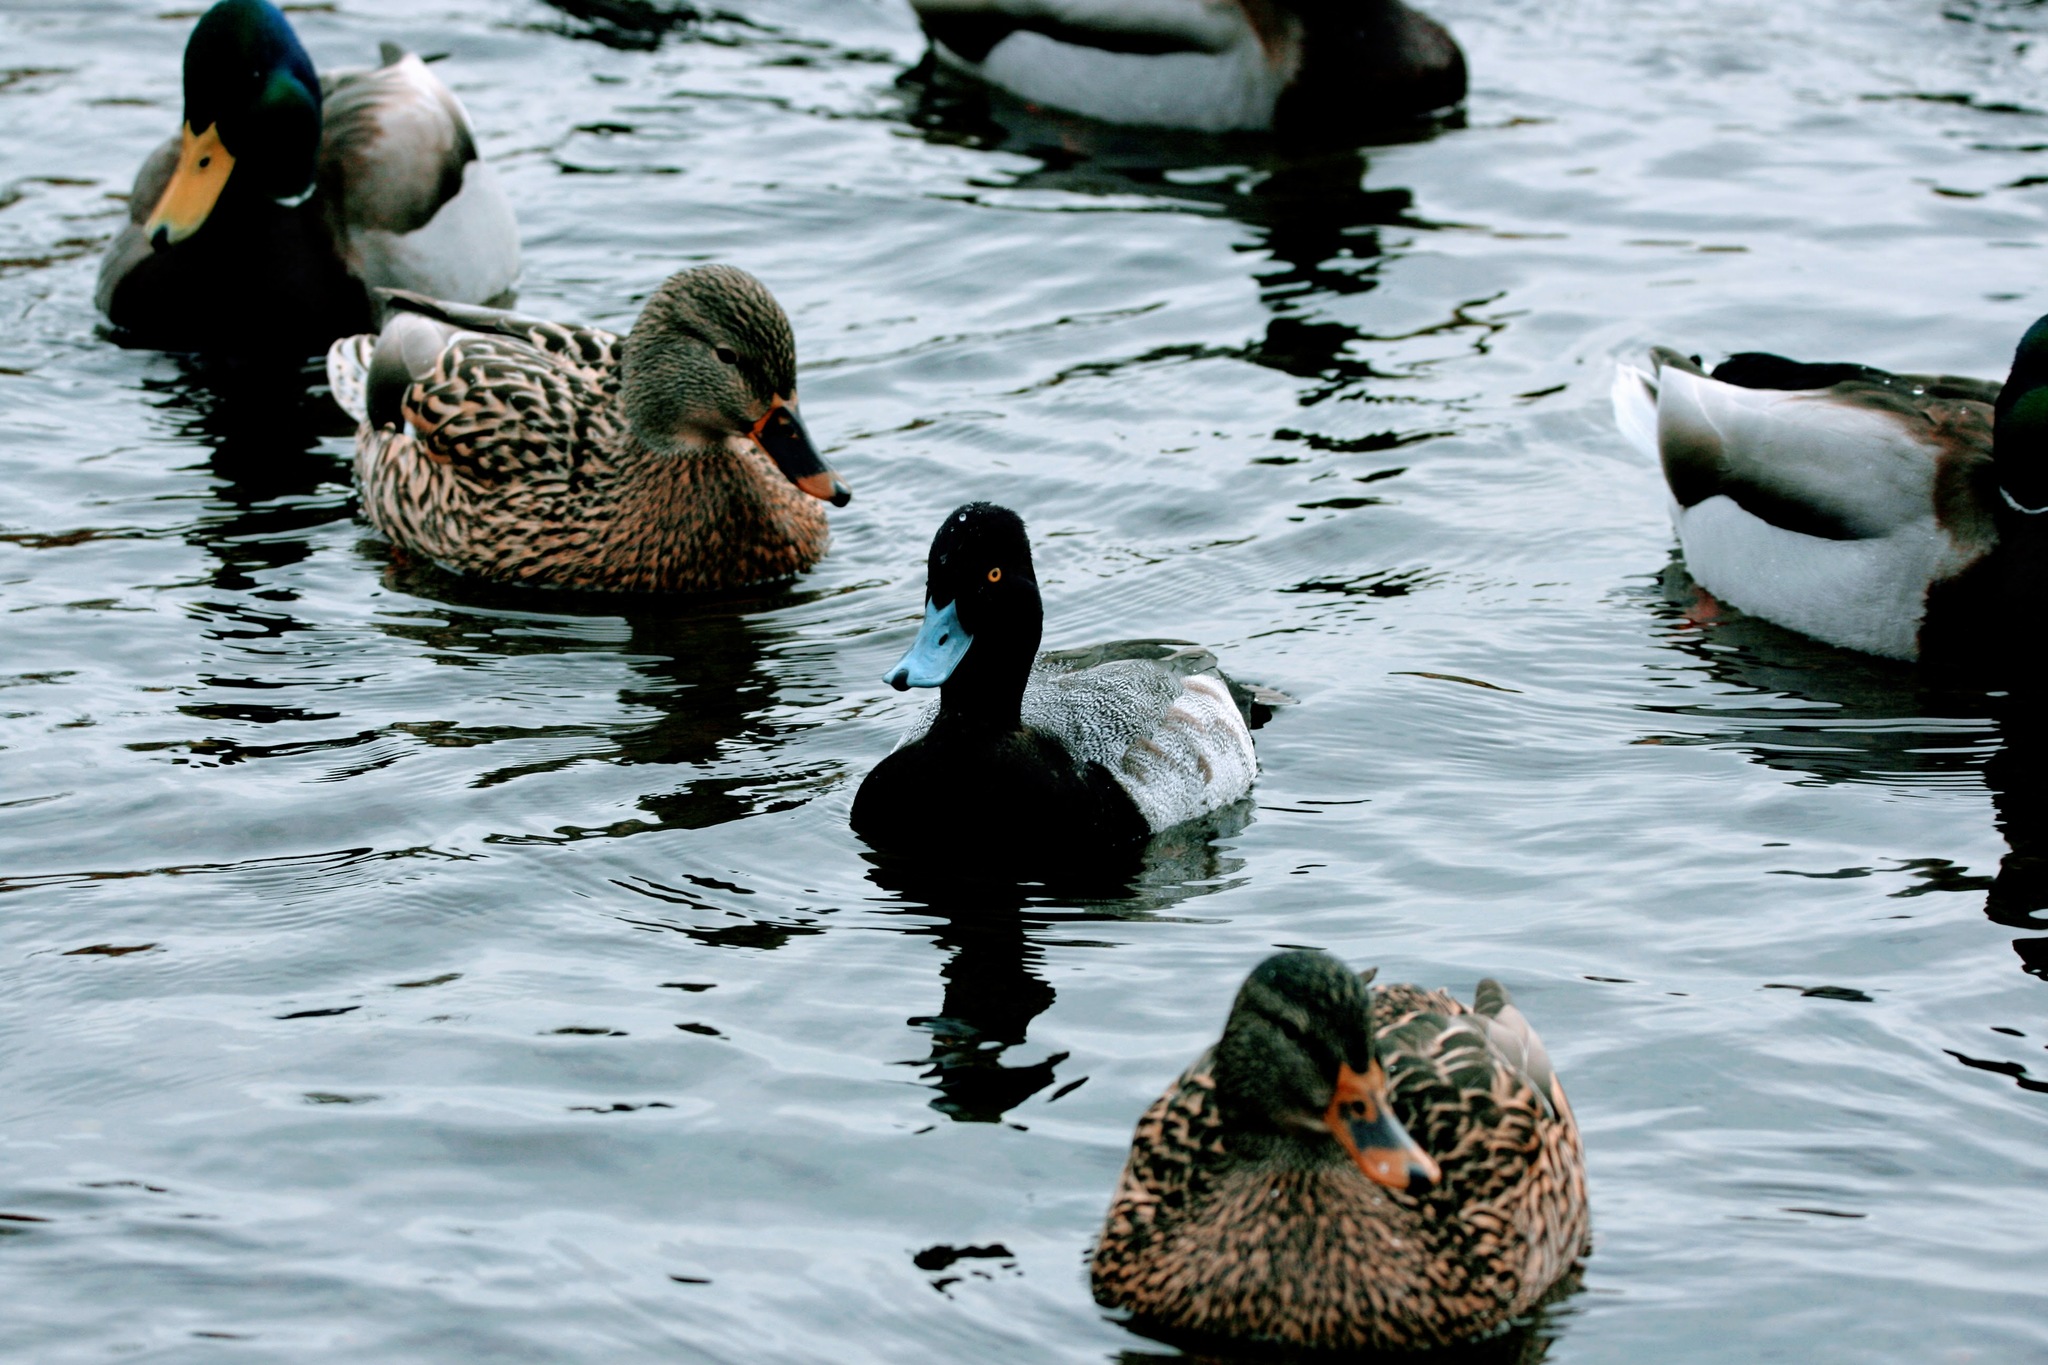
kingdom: Animalia
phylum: Chordata
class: Aves
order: Anseriformes
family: Anatidae
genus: Aythya
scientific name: Aythya affinis
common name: Lesser scaup
